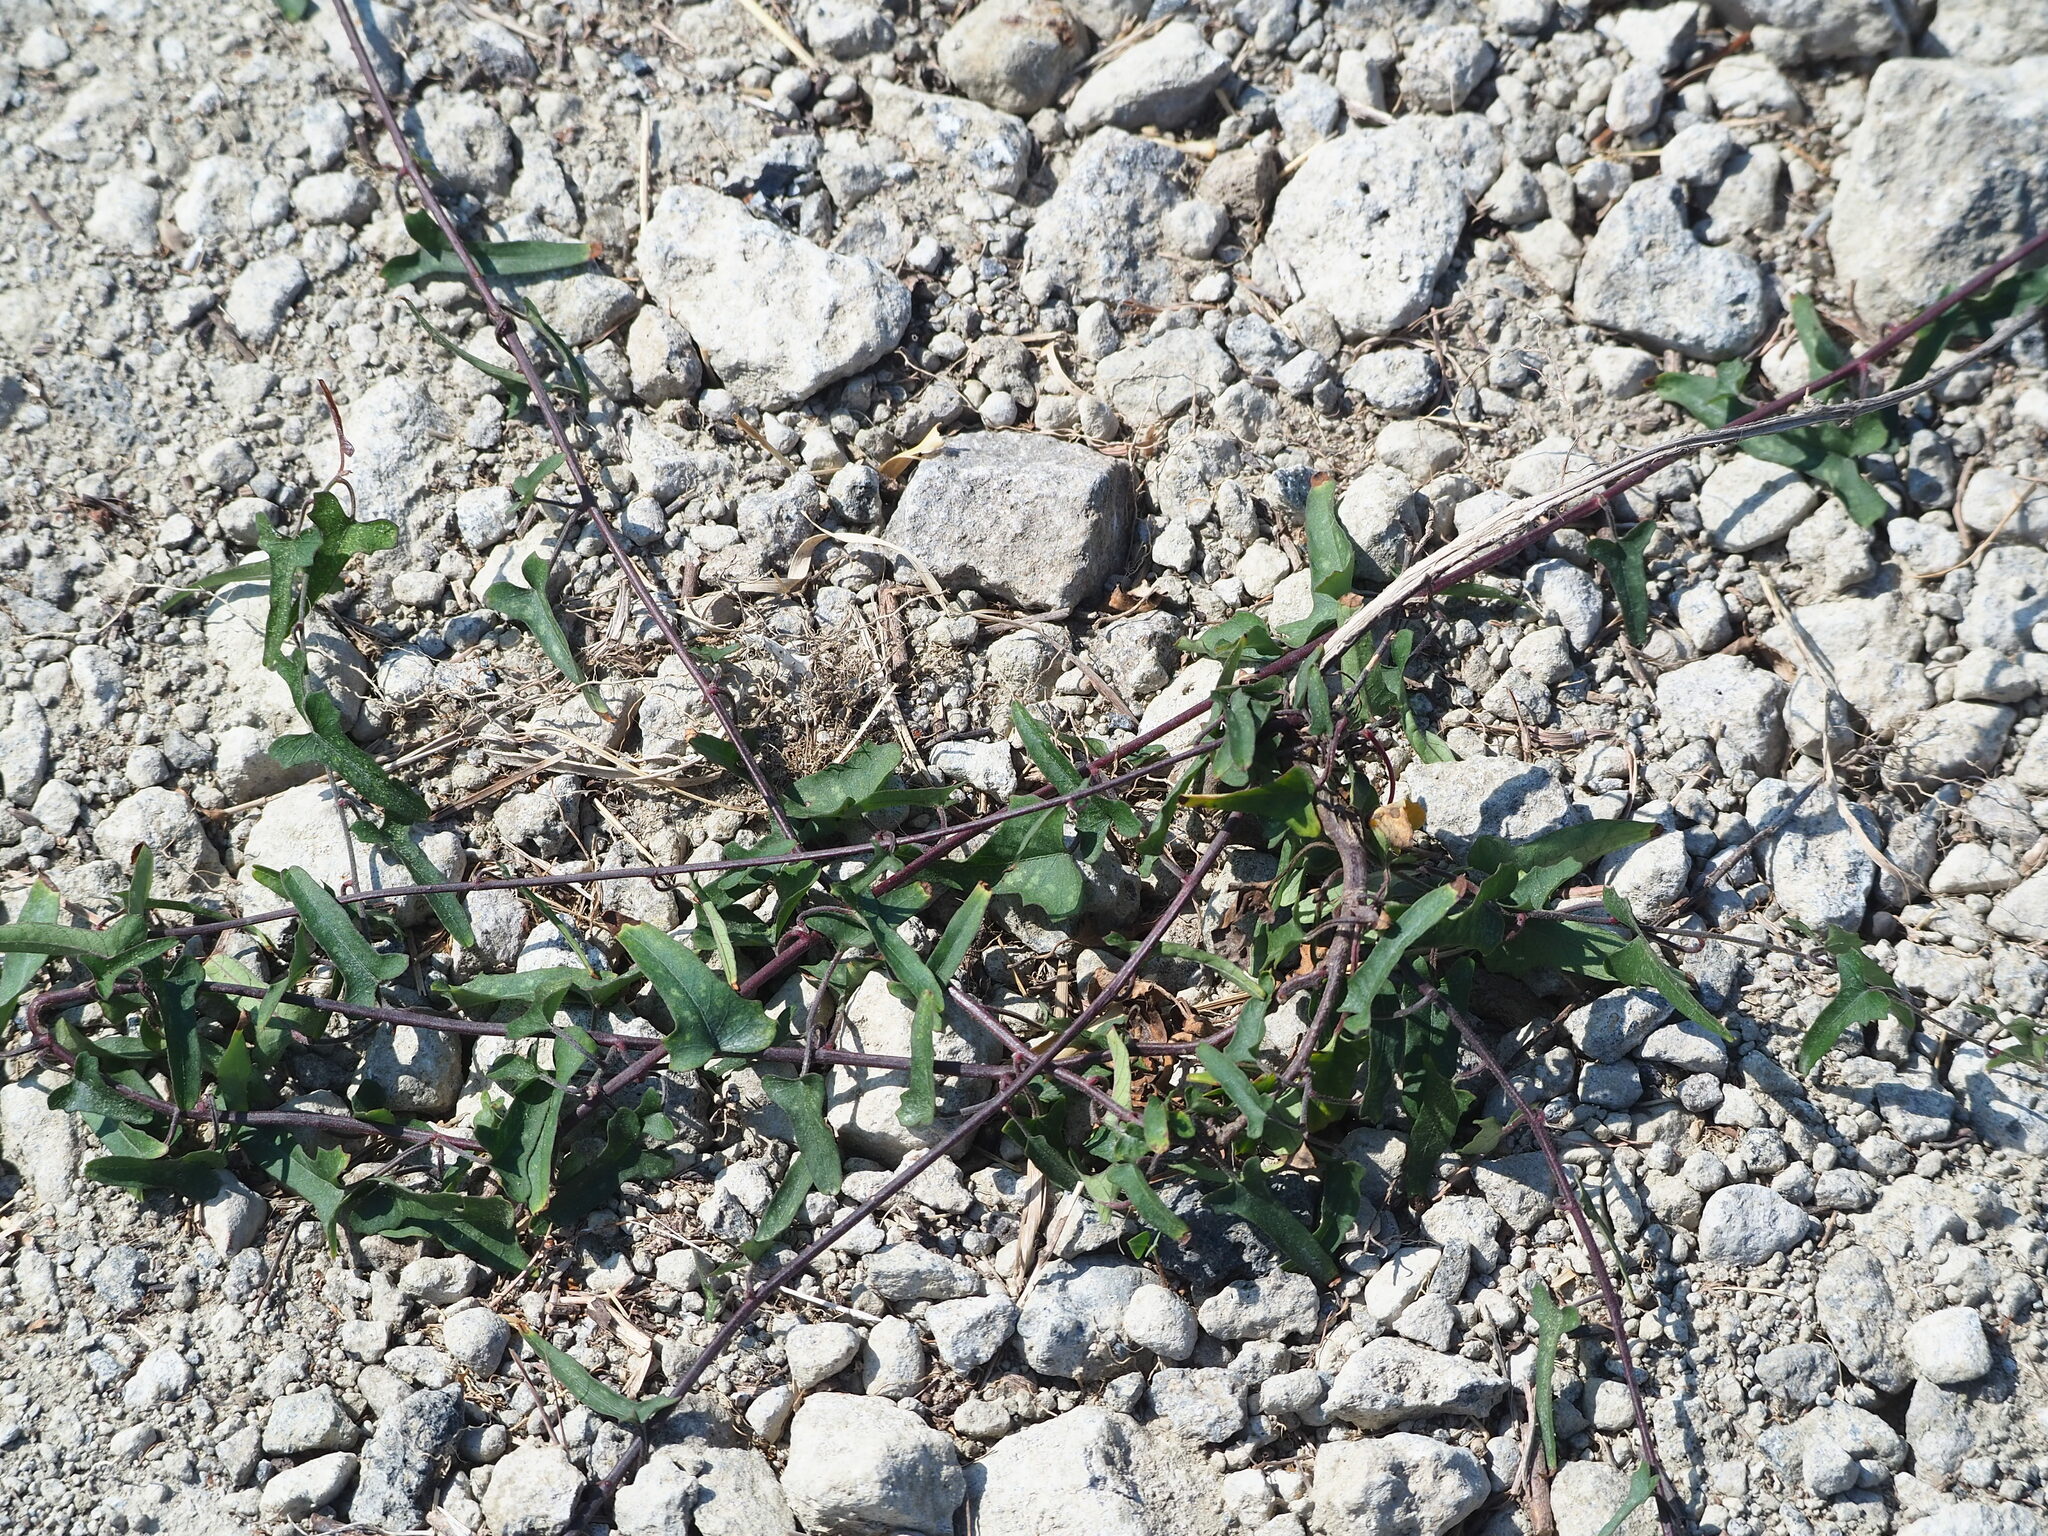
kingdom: Plantae
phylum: Tracheophyta
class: Magnoliopsida
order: Solanales
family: Convolvulaceae
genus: Merremia
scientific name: Merremia hederacea
